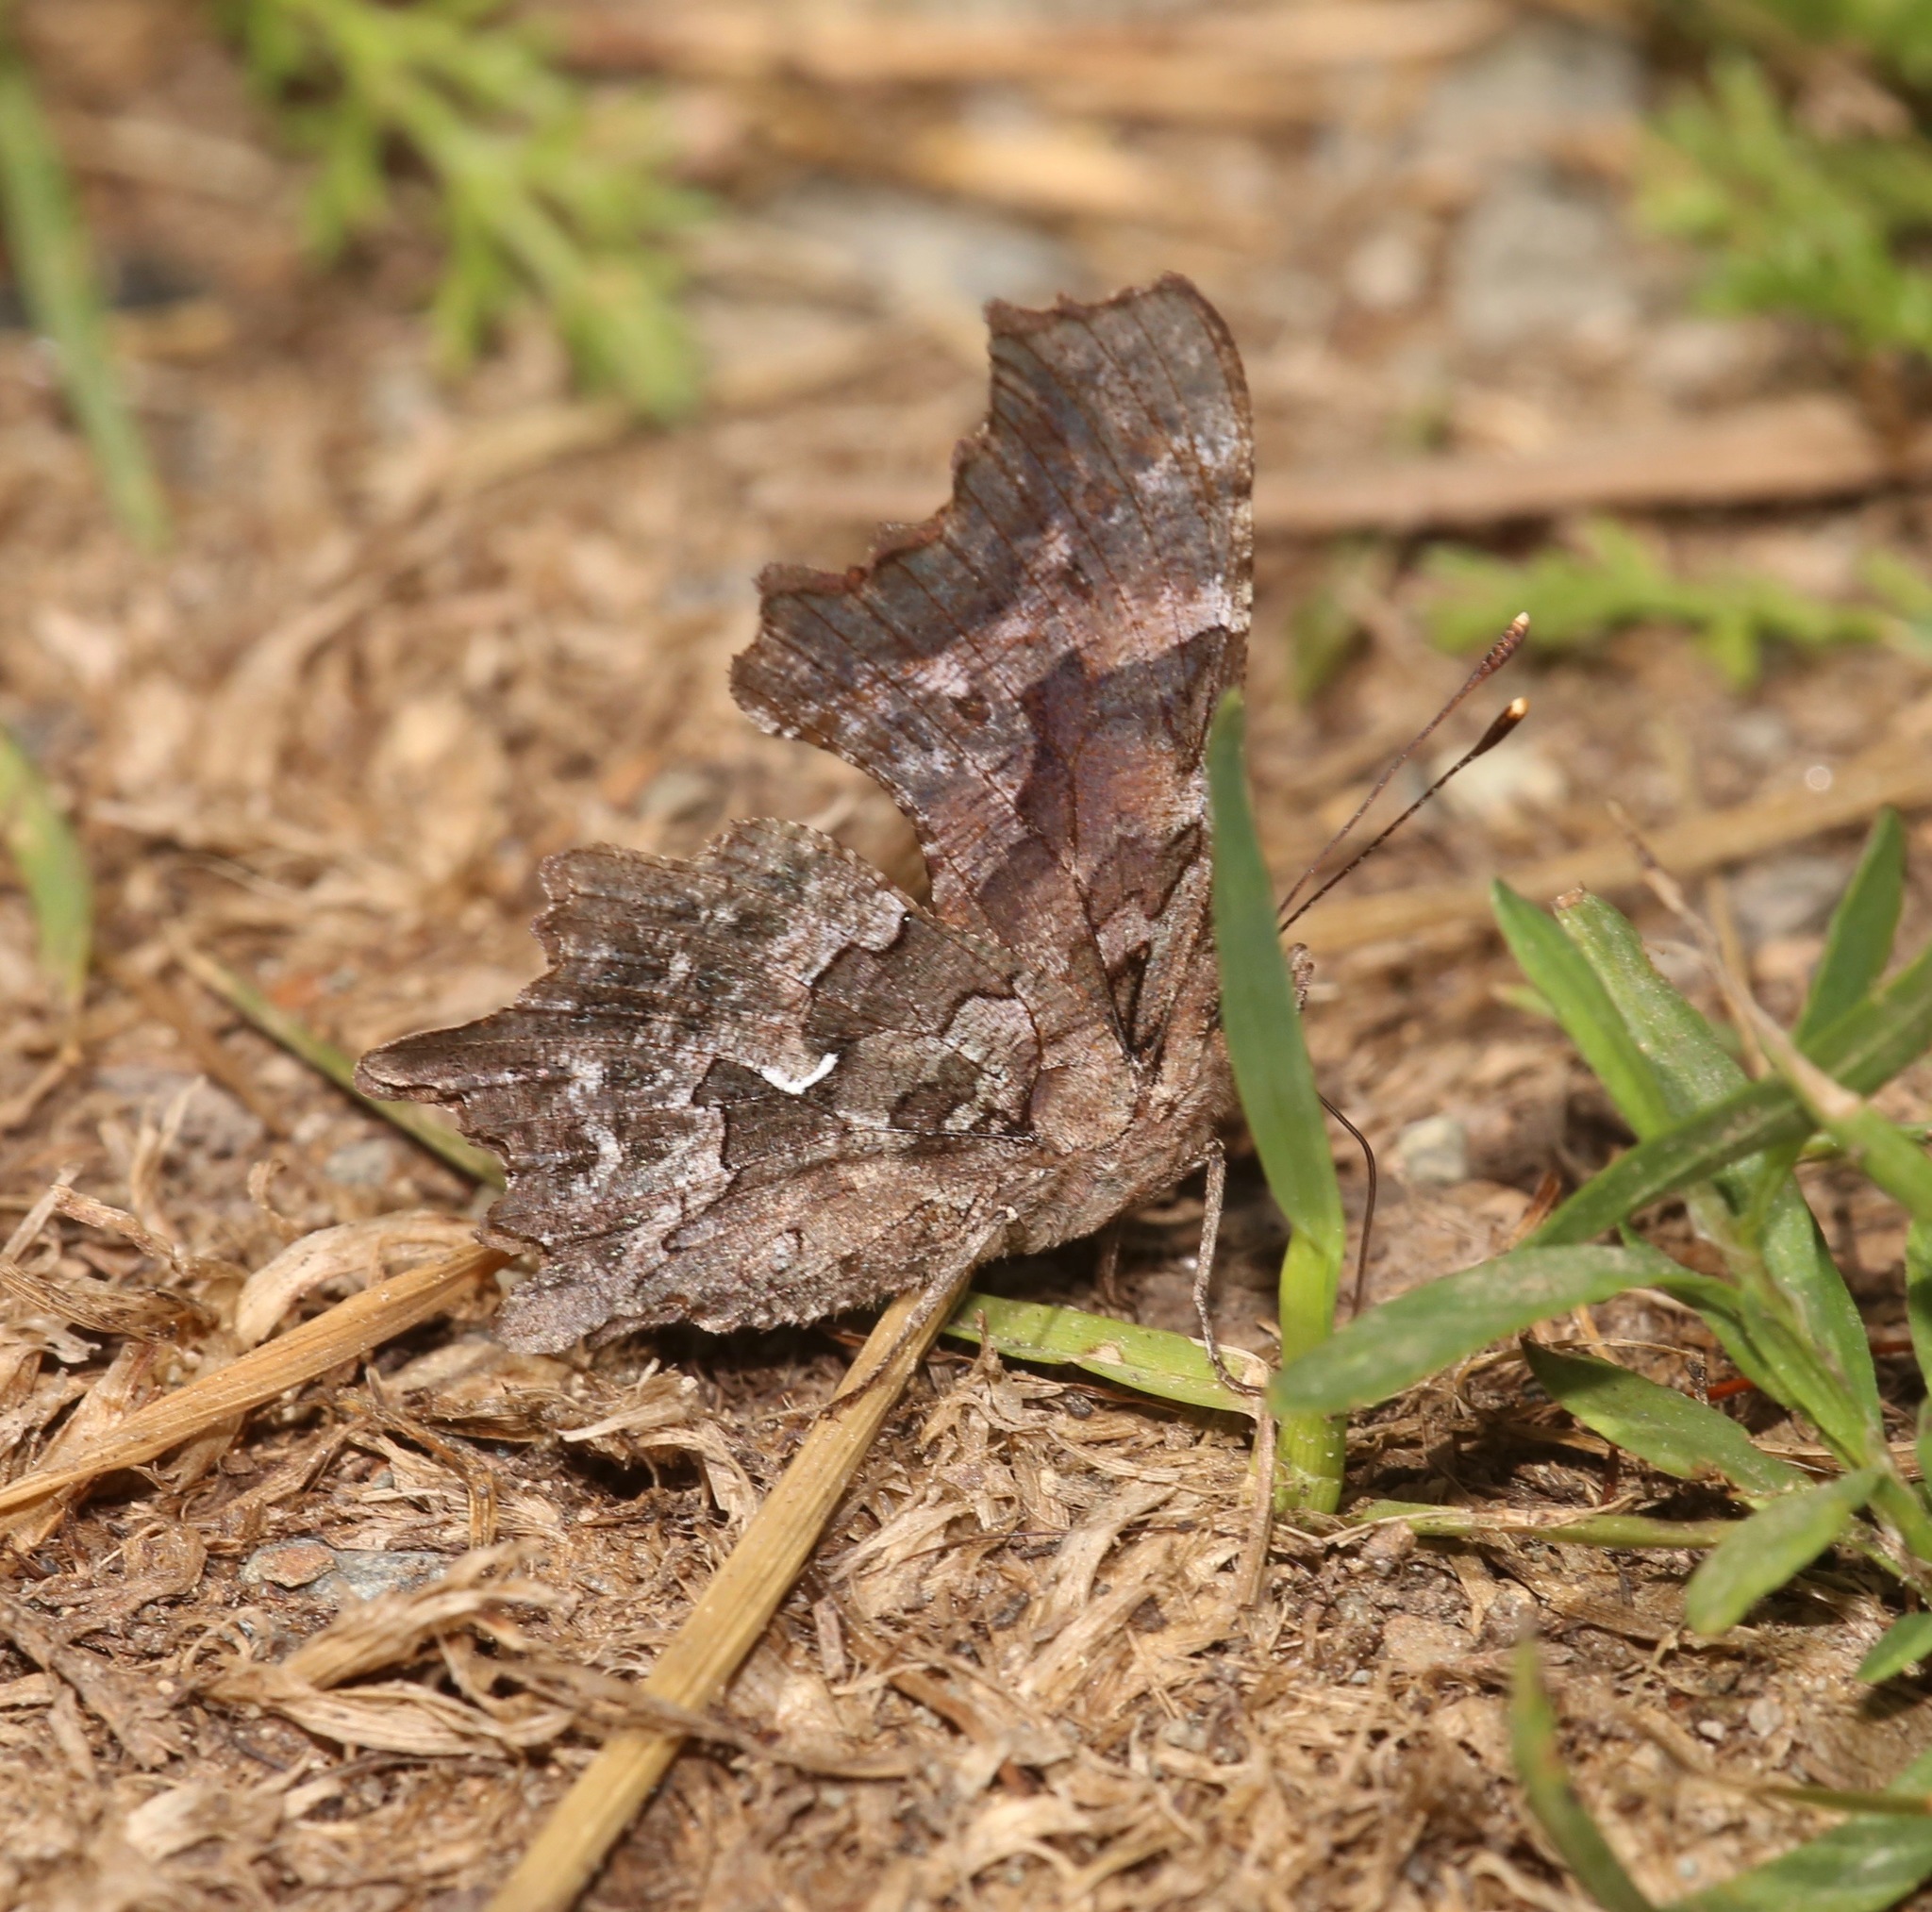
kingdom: Animalia
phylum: Arthropoda
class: Insecta
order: Lepidoptera
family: Nymphalidae
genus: Polygonia
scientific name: Polygonia faunus
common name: Green comma
